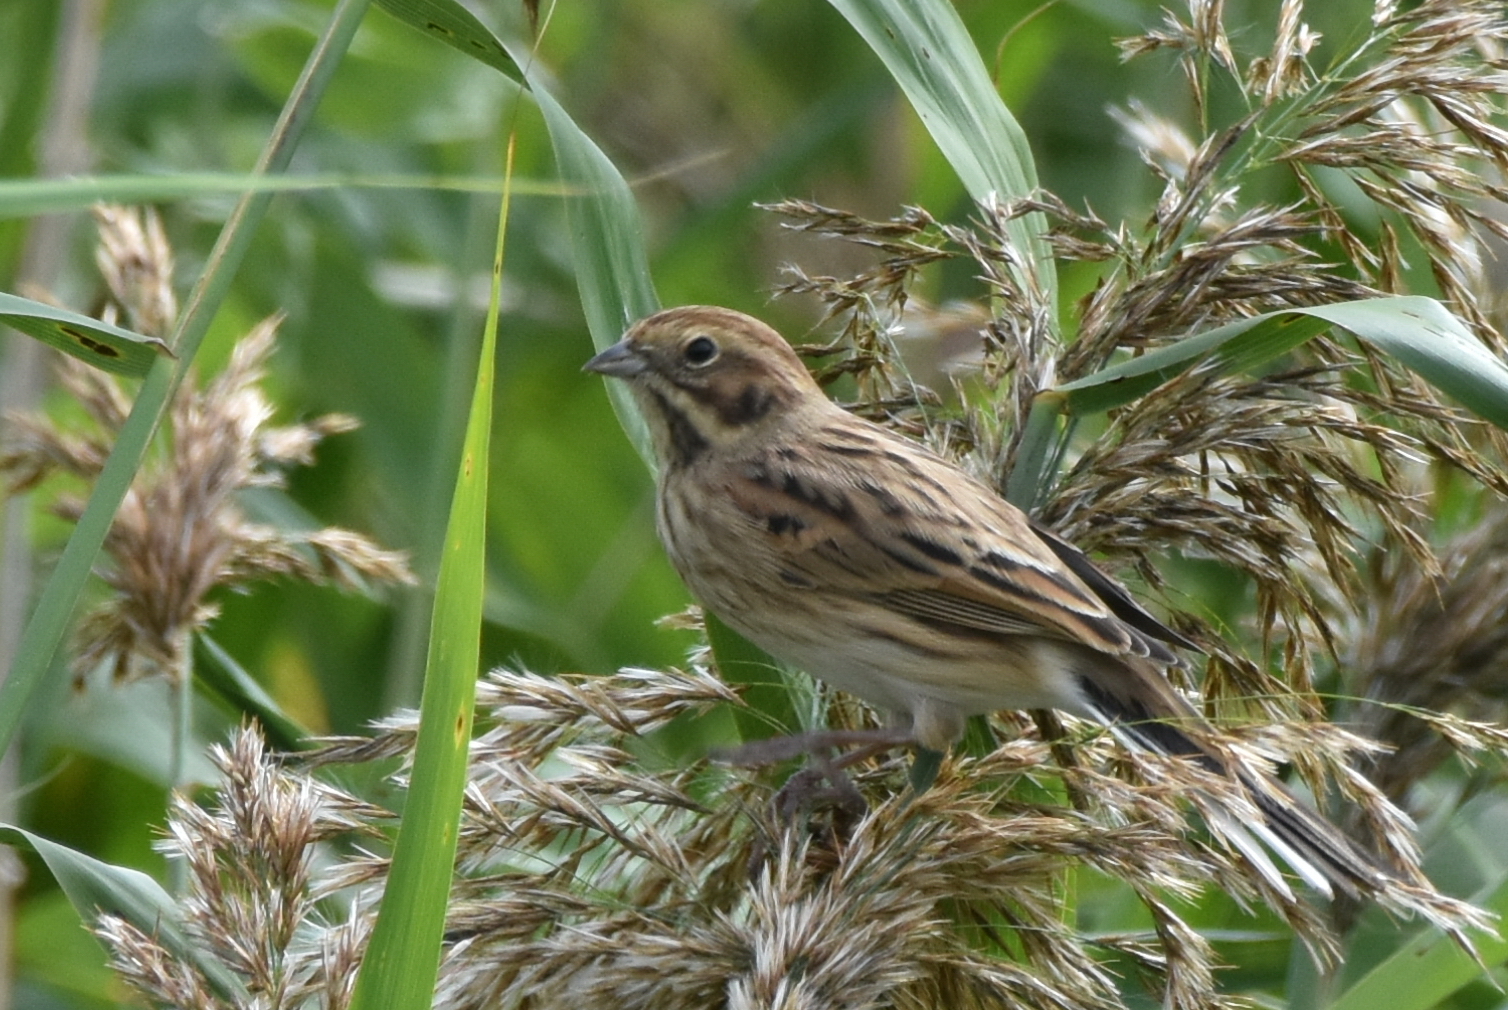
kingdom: Animalia
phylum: Chordata
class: Aves
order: Passeriformes
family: Emberizidae
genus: Emberiza
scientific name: Emberiza schoeniclus
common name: Reed bunting
